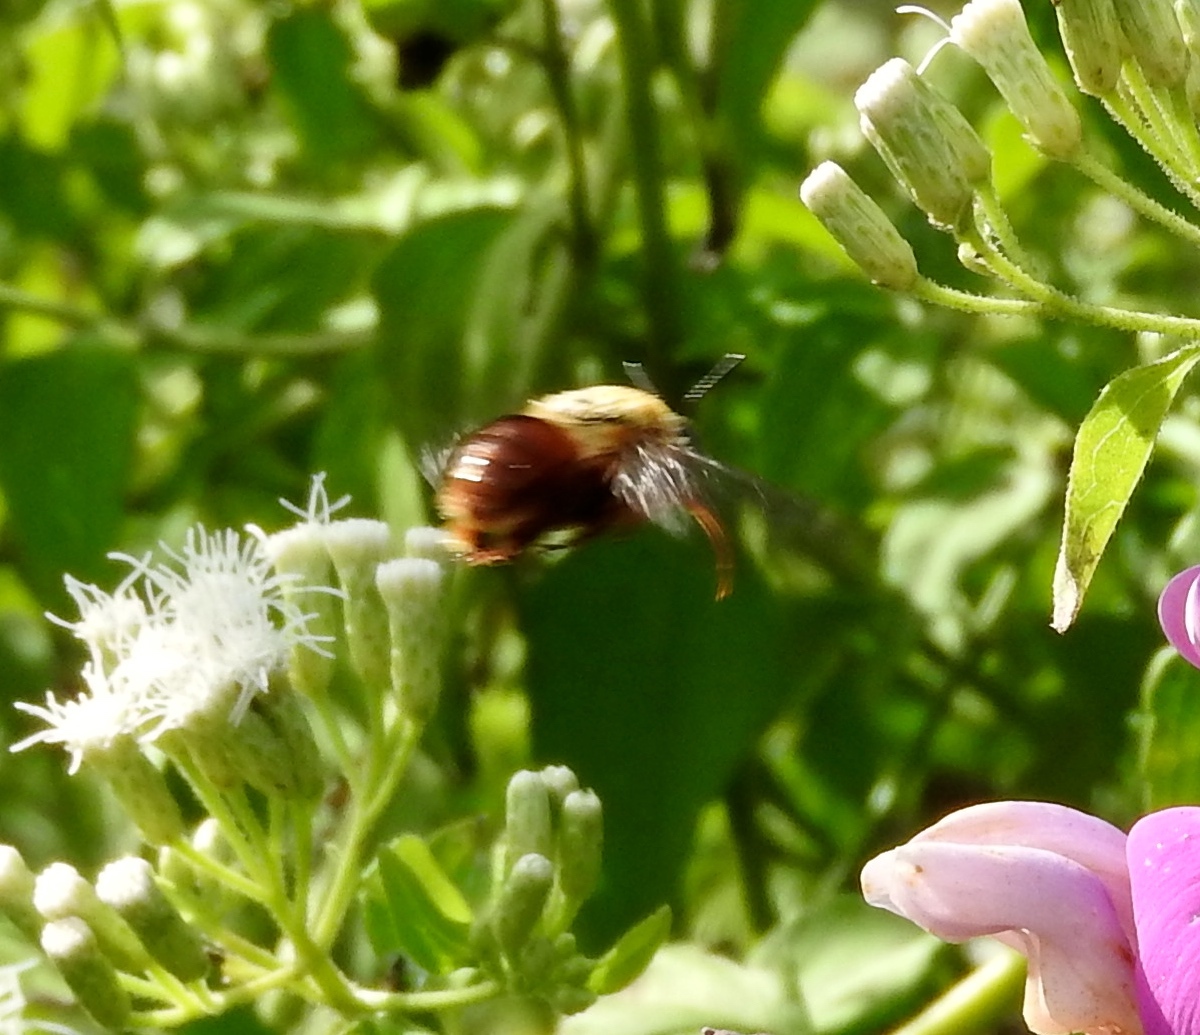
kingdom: Animalia
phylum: Arthropoda
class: Insecta
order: Hymenoptera
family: Apidae
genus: Centris
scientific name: Centris eurypatana
